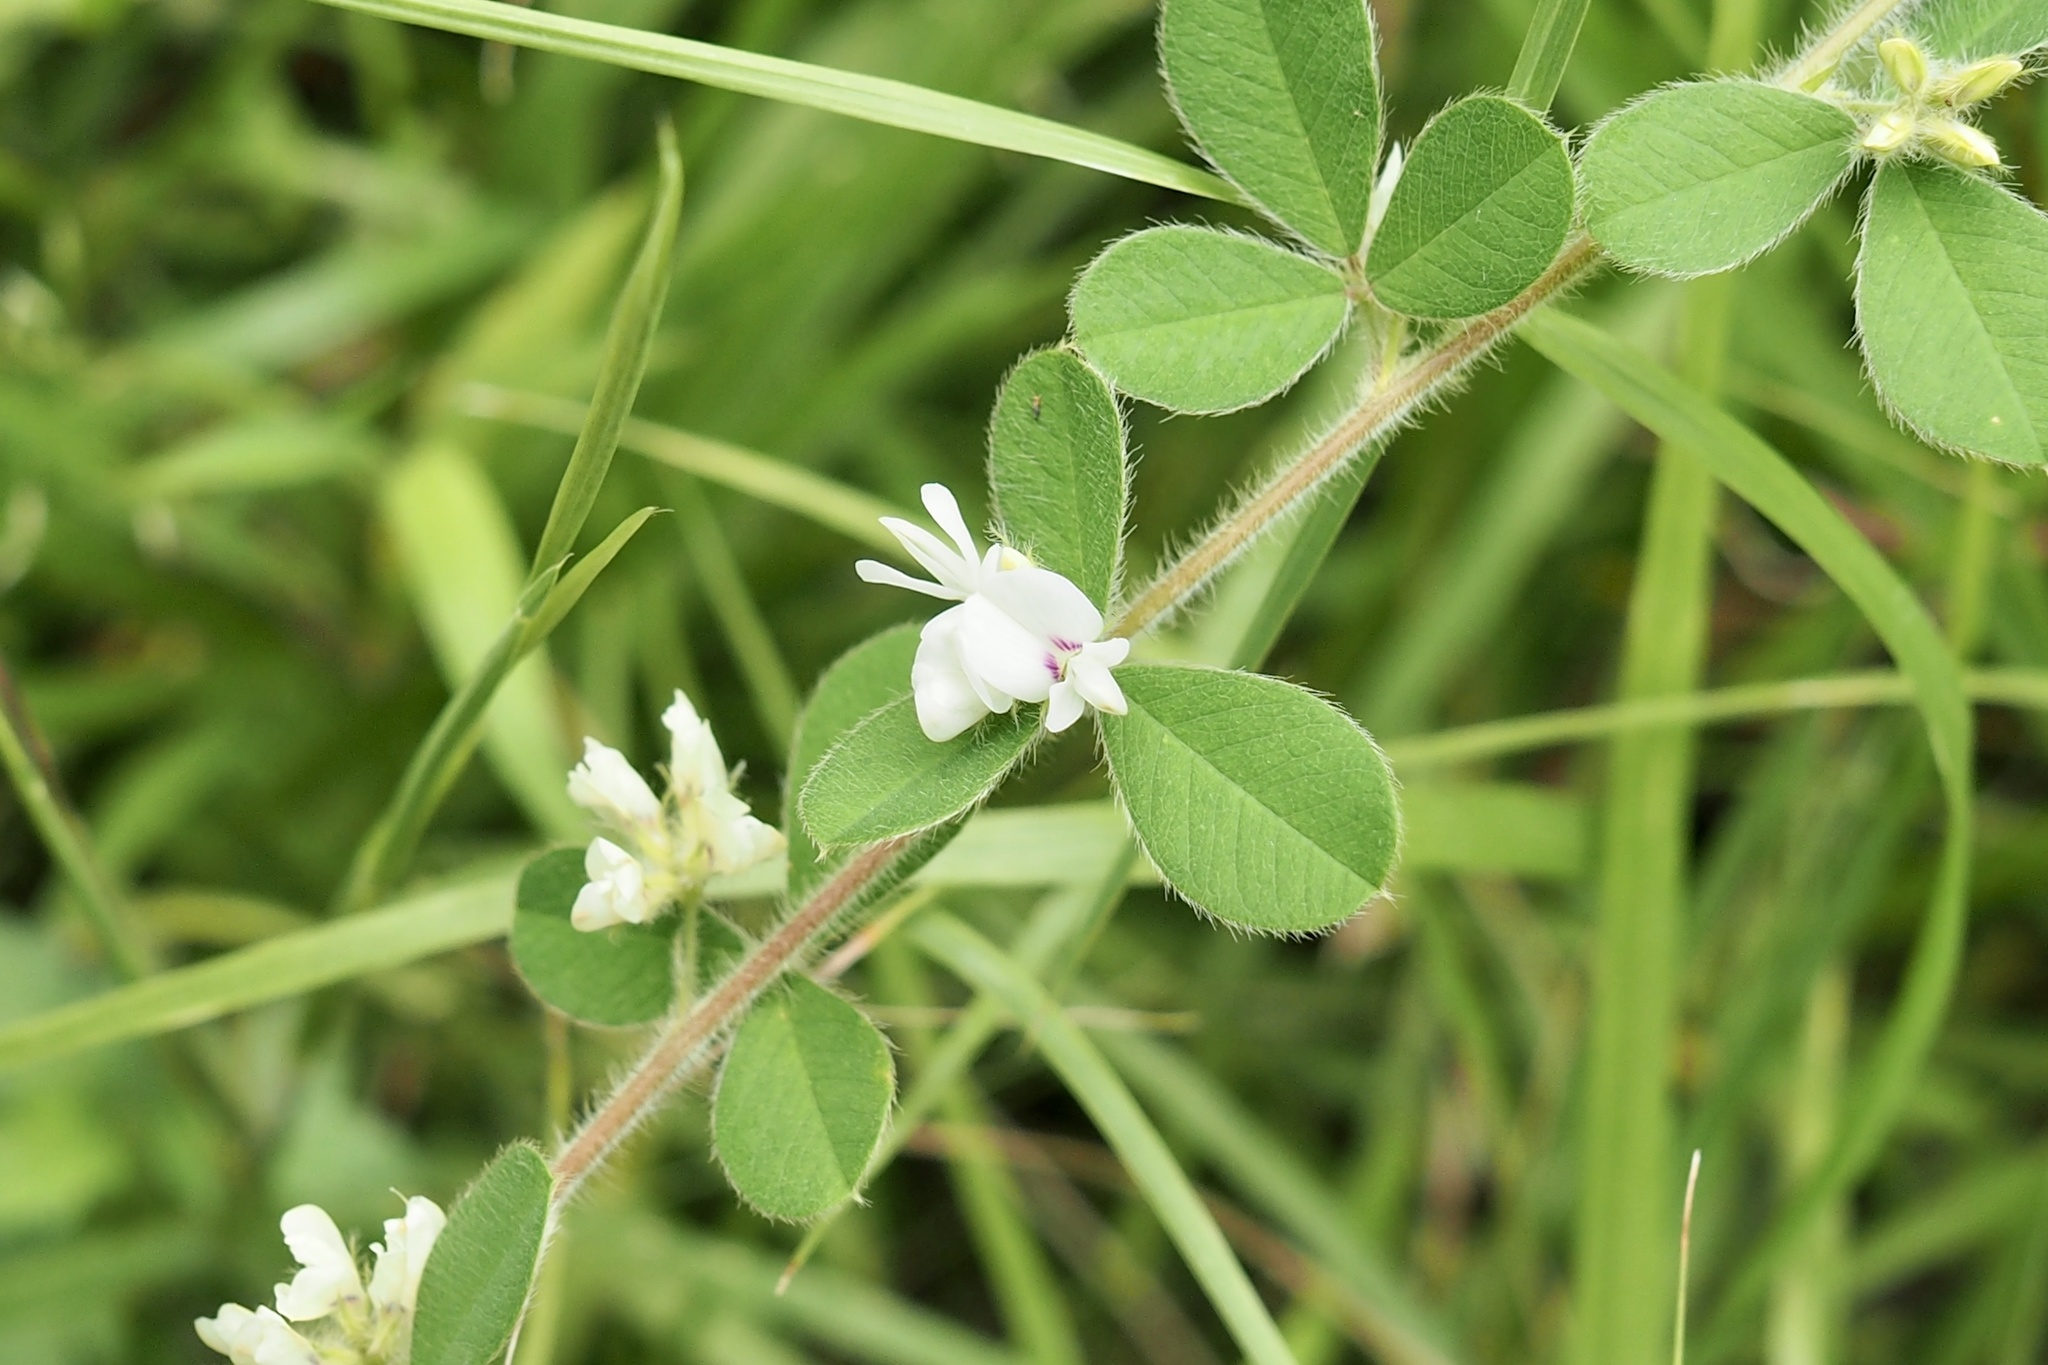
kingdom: Plantae
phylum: Tracheophyta
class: Magnoliopsida
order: Fabales
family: Fabaceae
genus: Lespedeza
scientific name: Lespedeza pilosa
